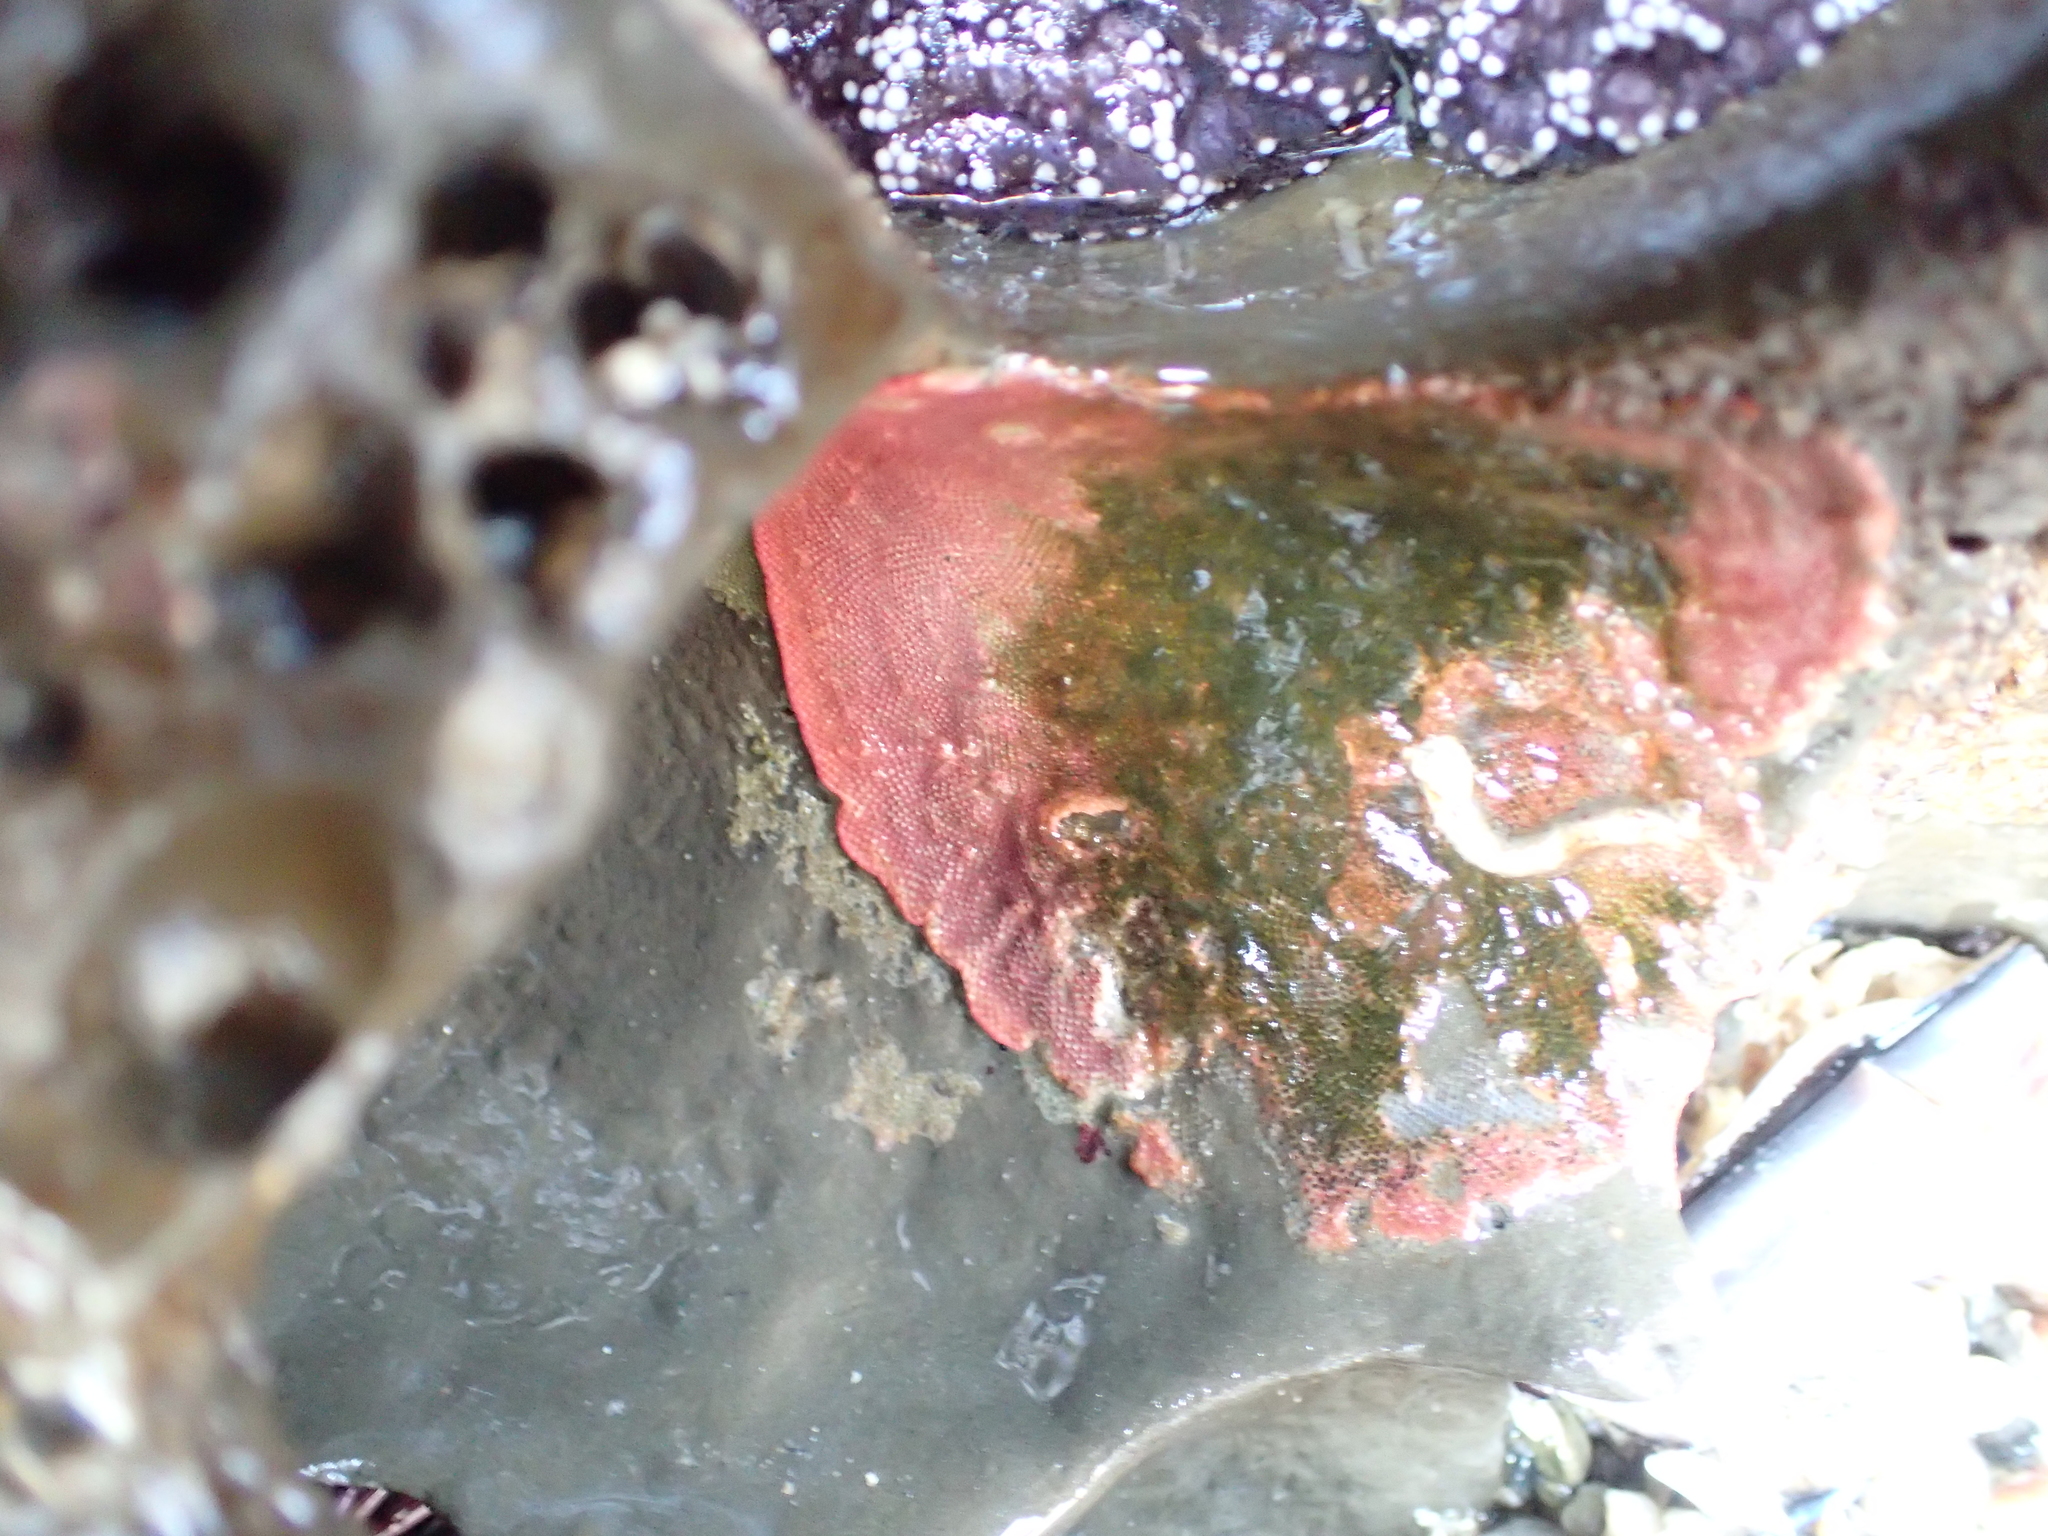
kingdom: Animalia
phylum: Bryozoa
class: Gymnolaemata
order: Cheilostomatida
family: Eurystomellidae
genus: Integripelta
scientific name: Integripelta bilabiata
